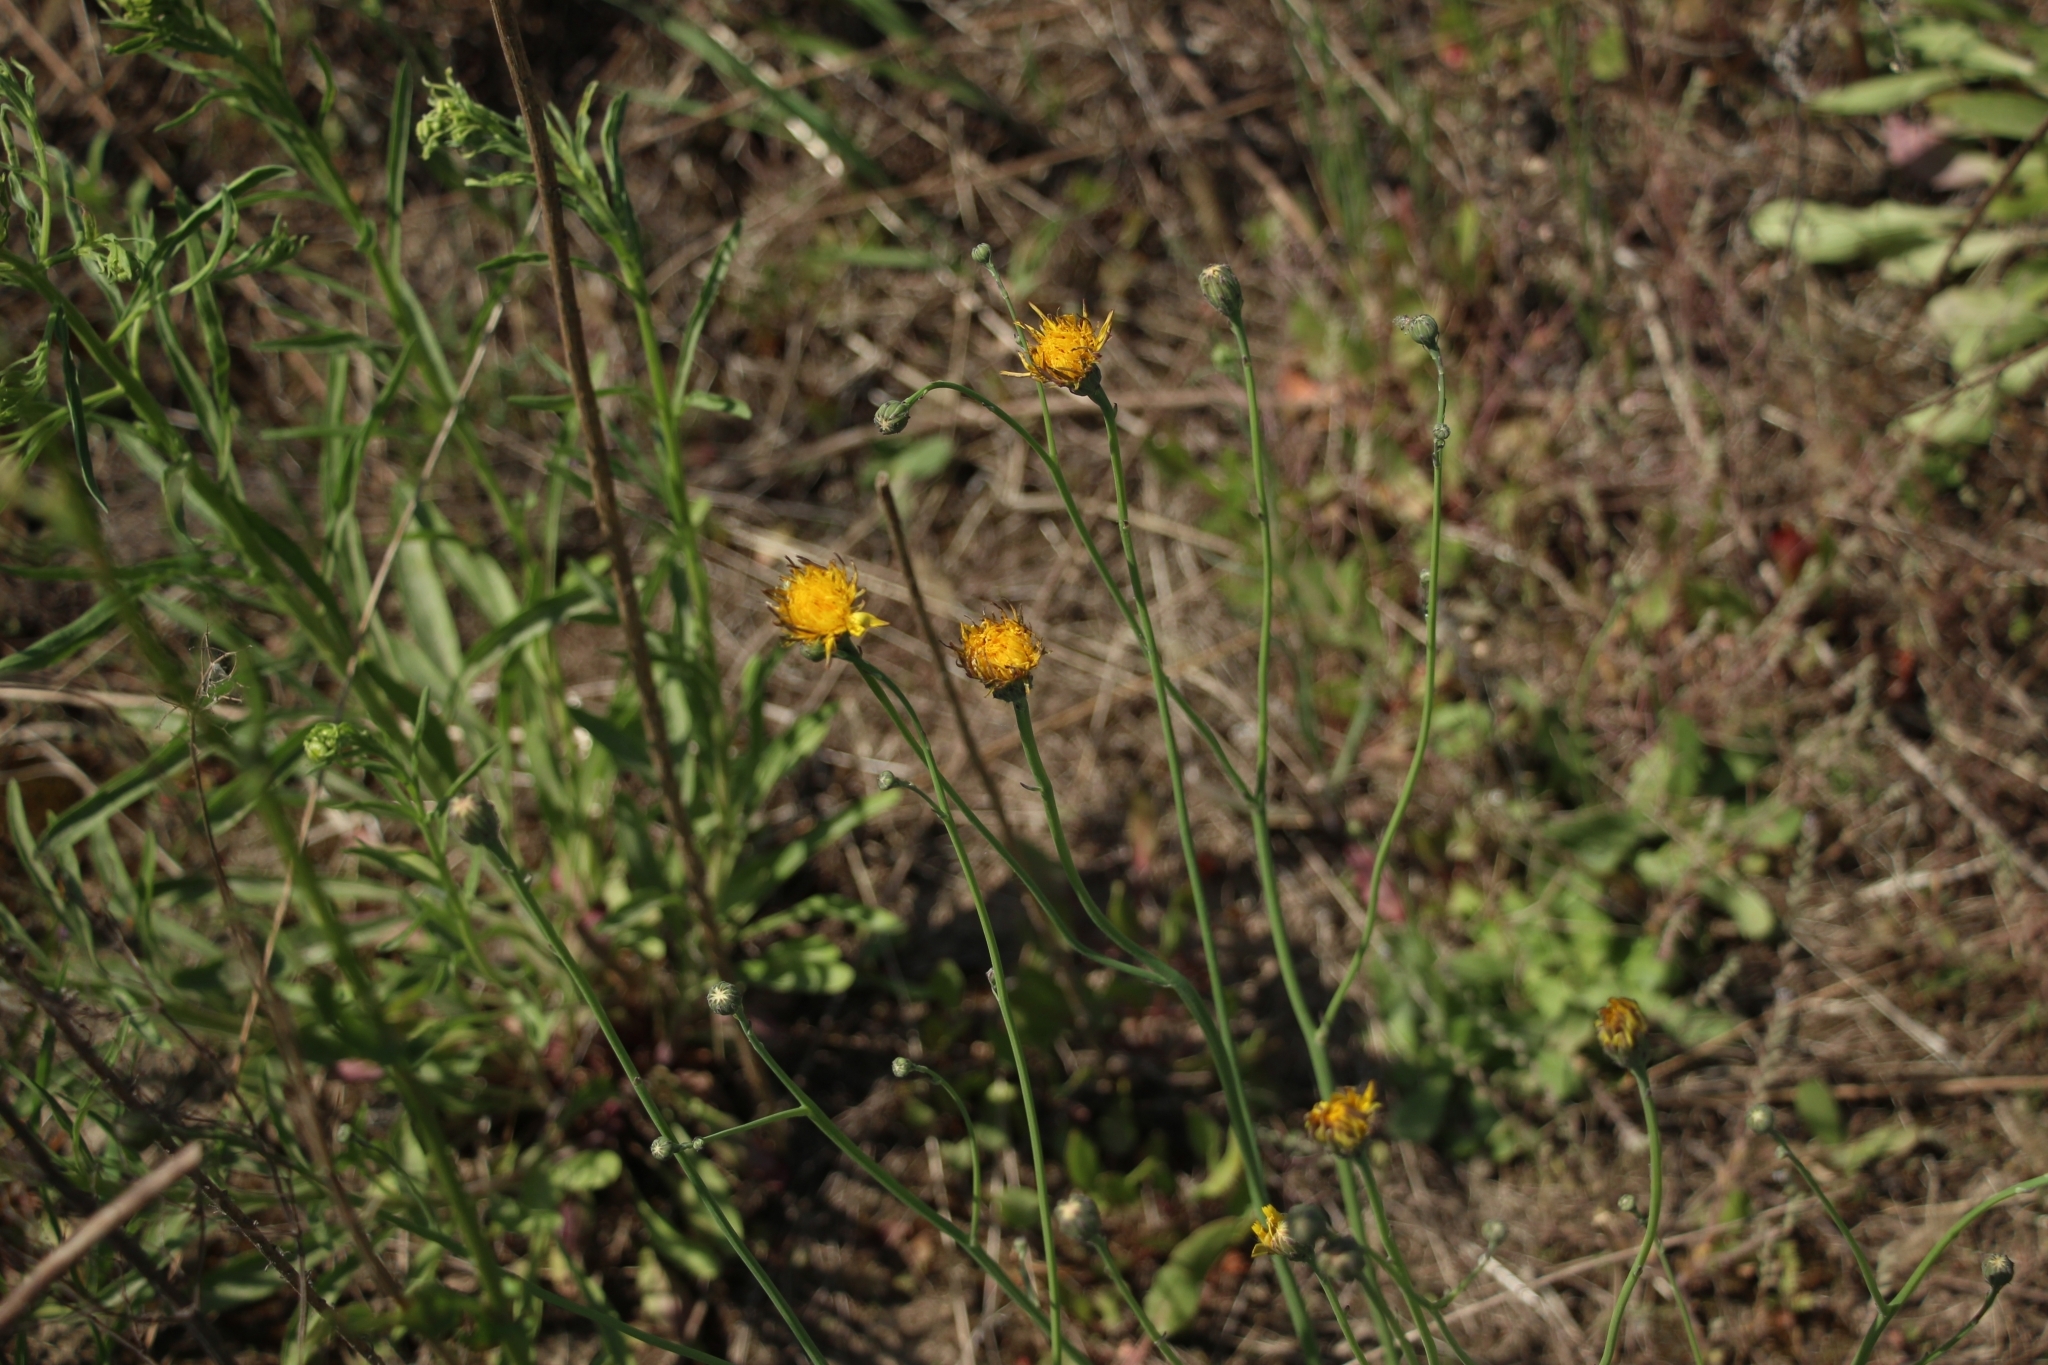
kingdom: Plantae
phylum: Tracheophyta
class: Magnoliopsida
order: Asterales
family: Asteraceae
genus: Hypochaeris
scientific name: Hypochaeris radicata
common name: Flatweed
